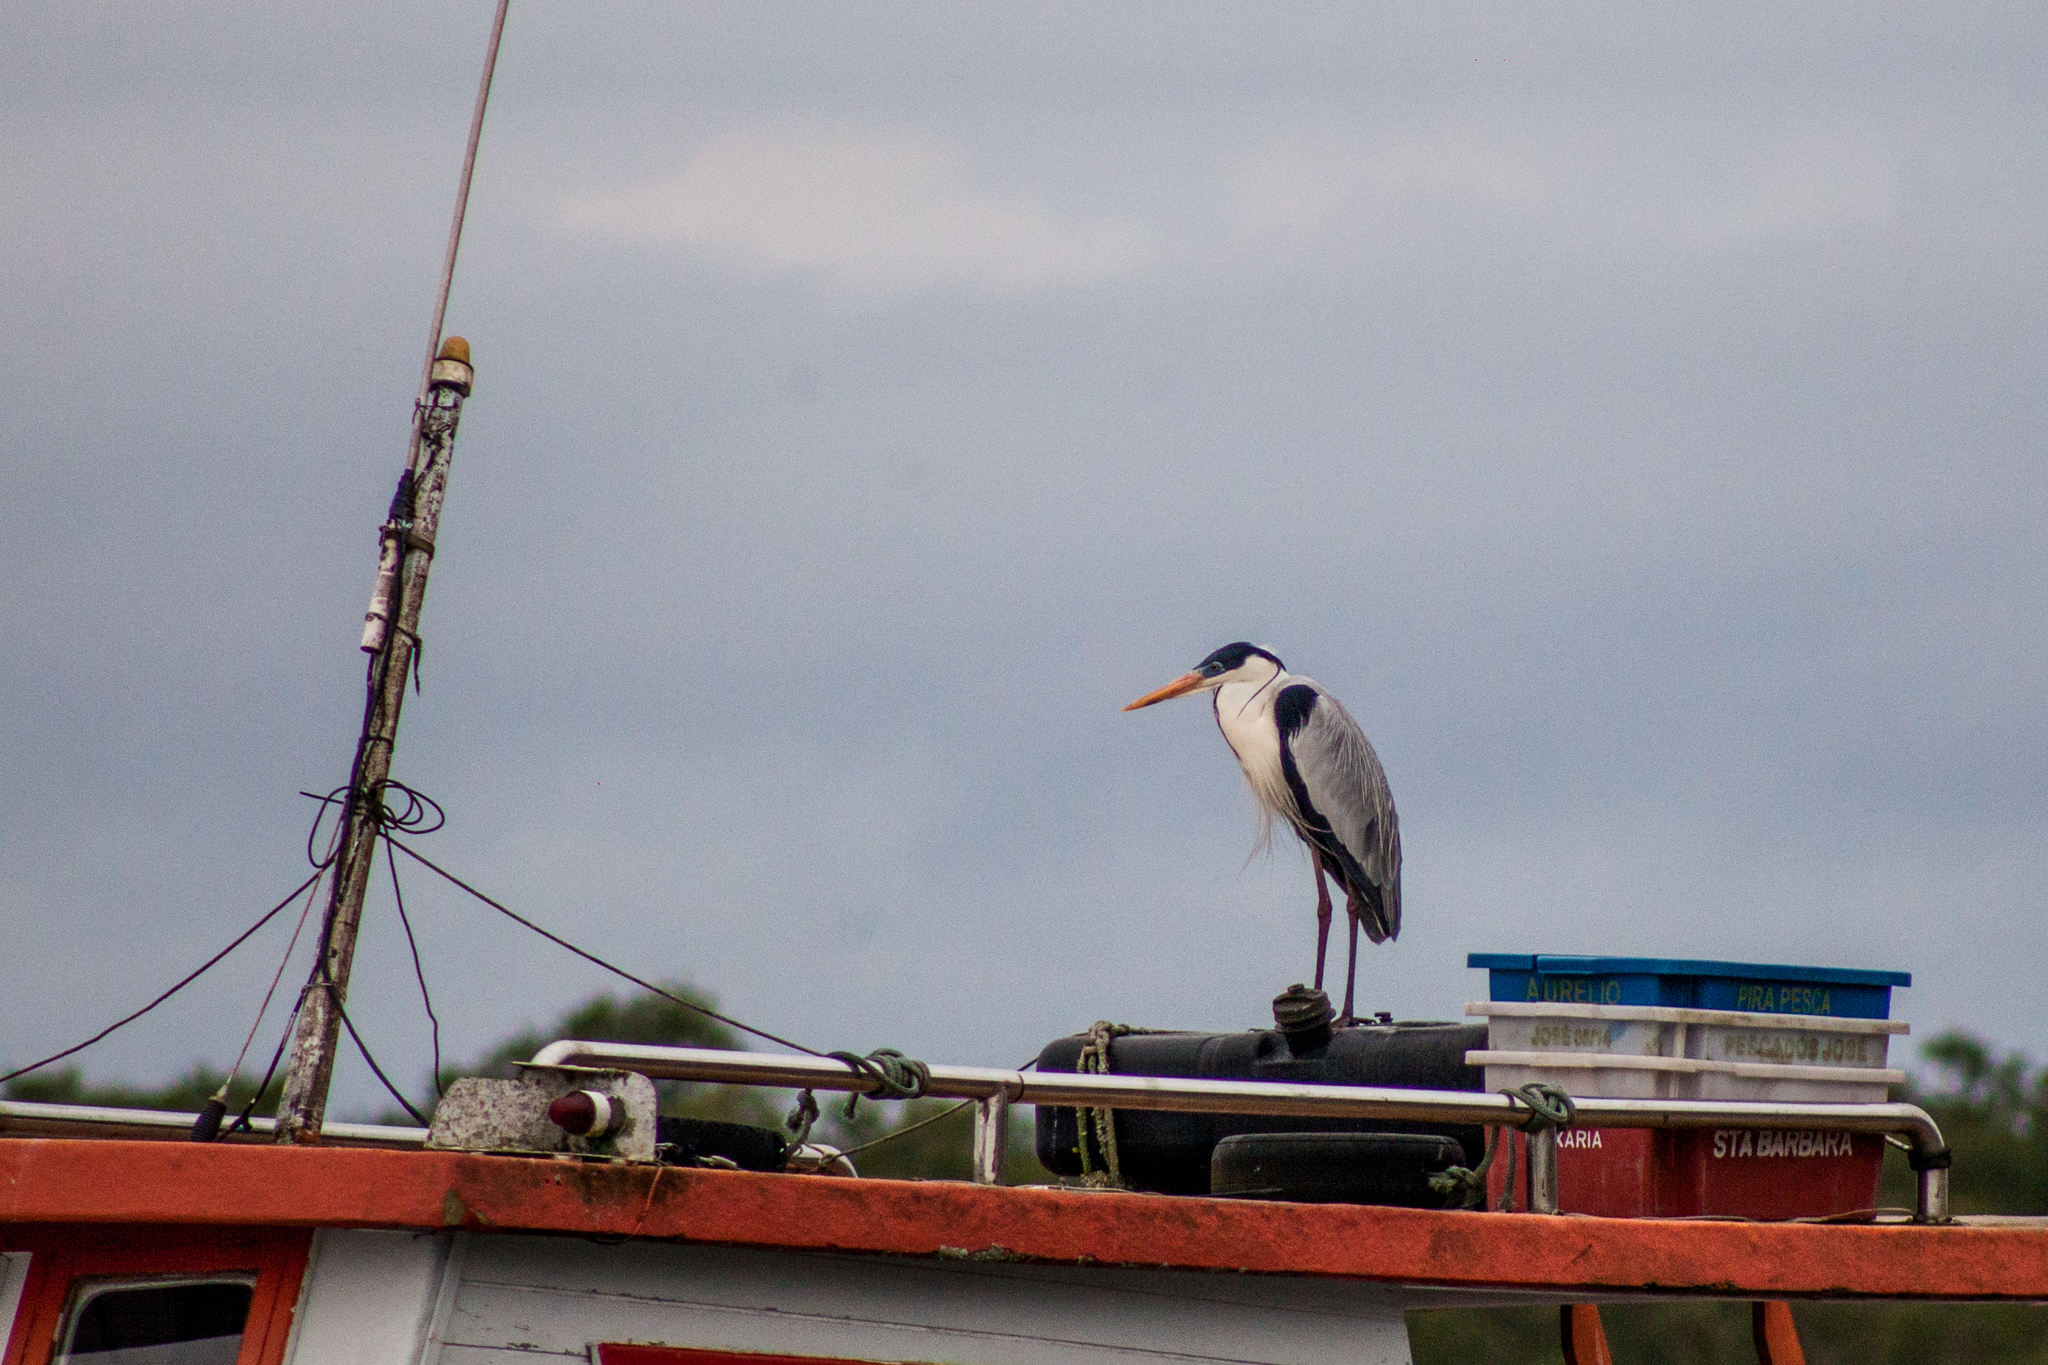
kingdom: Animalia
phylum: Chordata
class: Aves
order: Pelecaniformes
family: Ardeidae
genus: Ardea
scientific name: Ardea cocoi
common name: Cocoi heron
